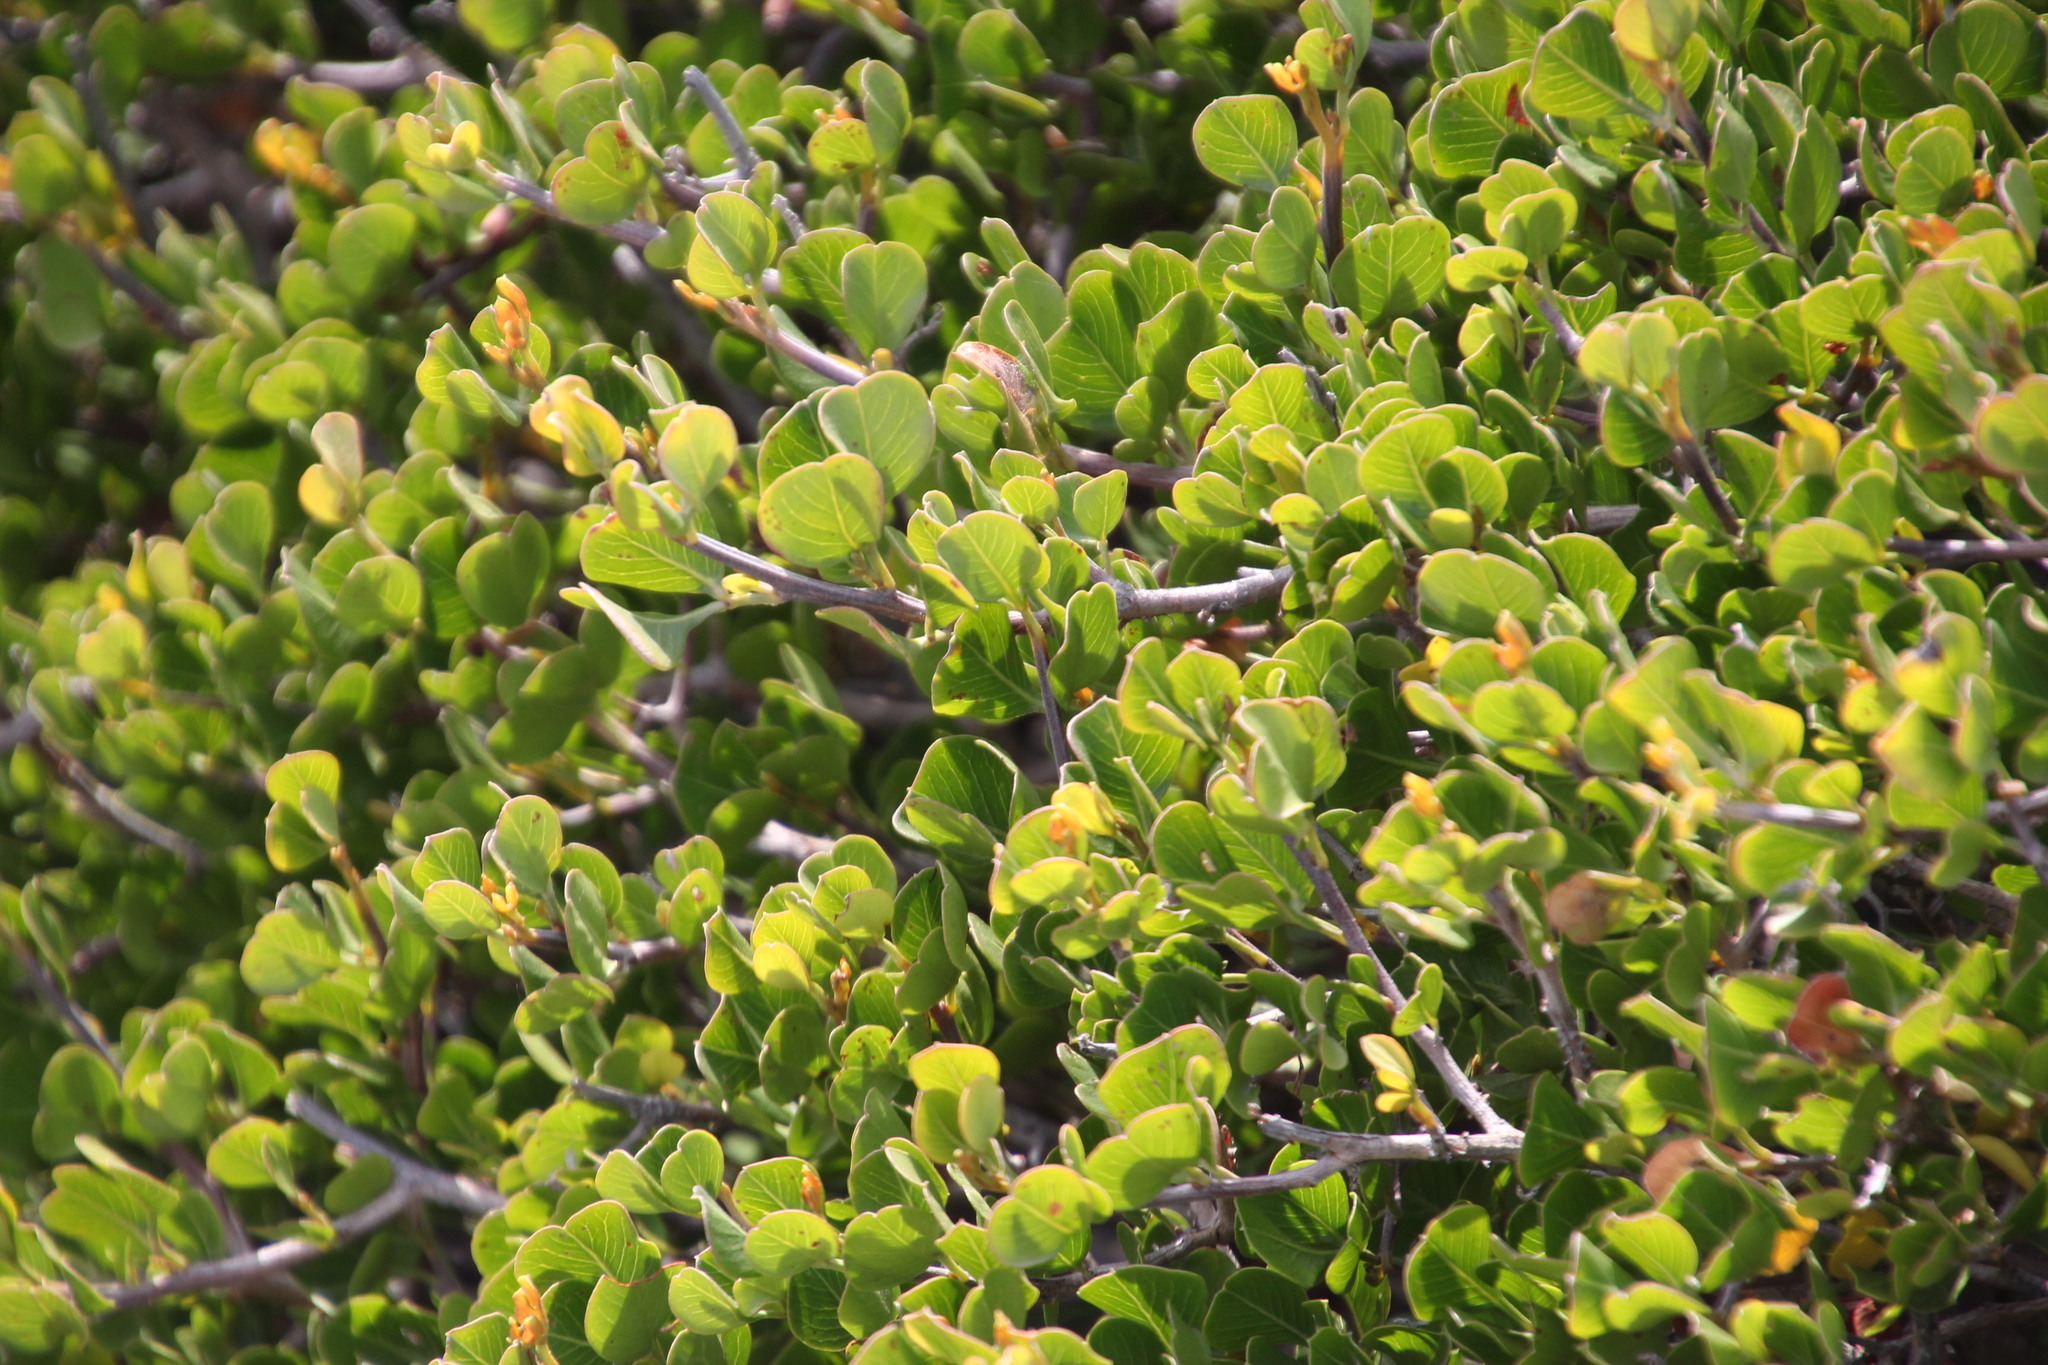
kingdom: Plantae
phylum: Tracheophyta
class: Magnoliopsida
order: Sapindales
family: Anacardiaceae
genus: Searsia
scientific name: Searsia glauca
